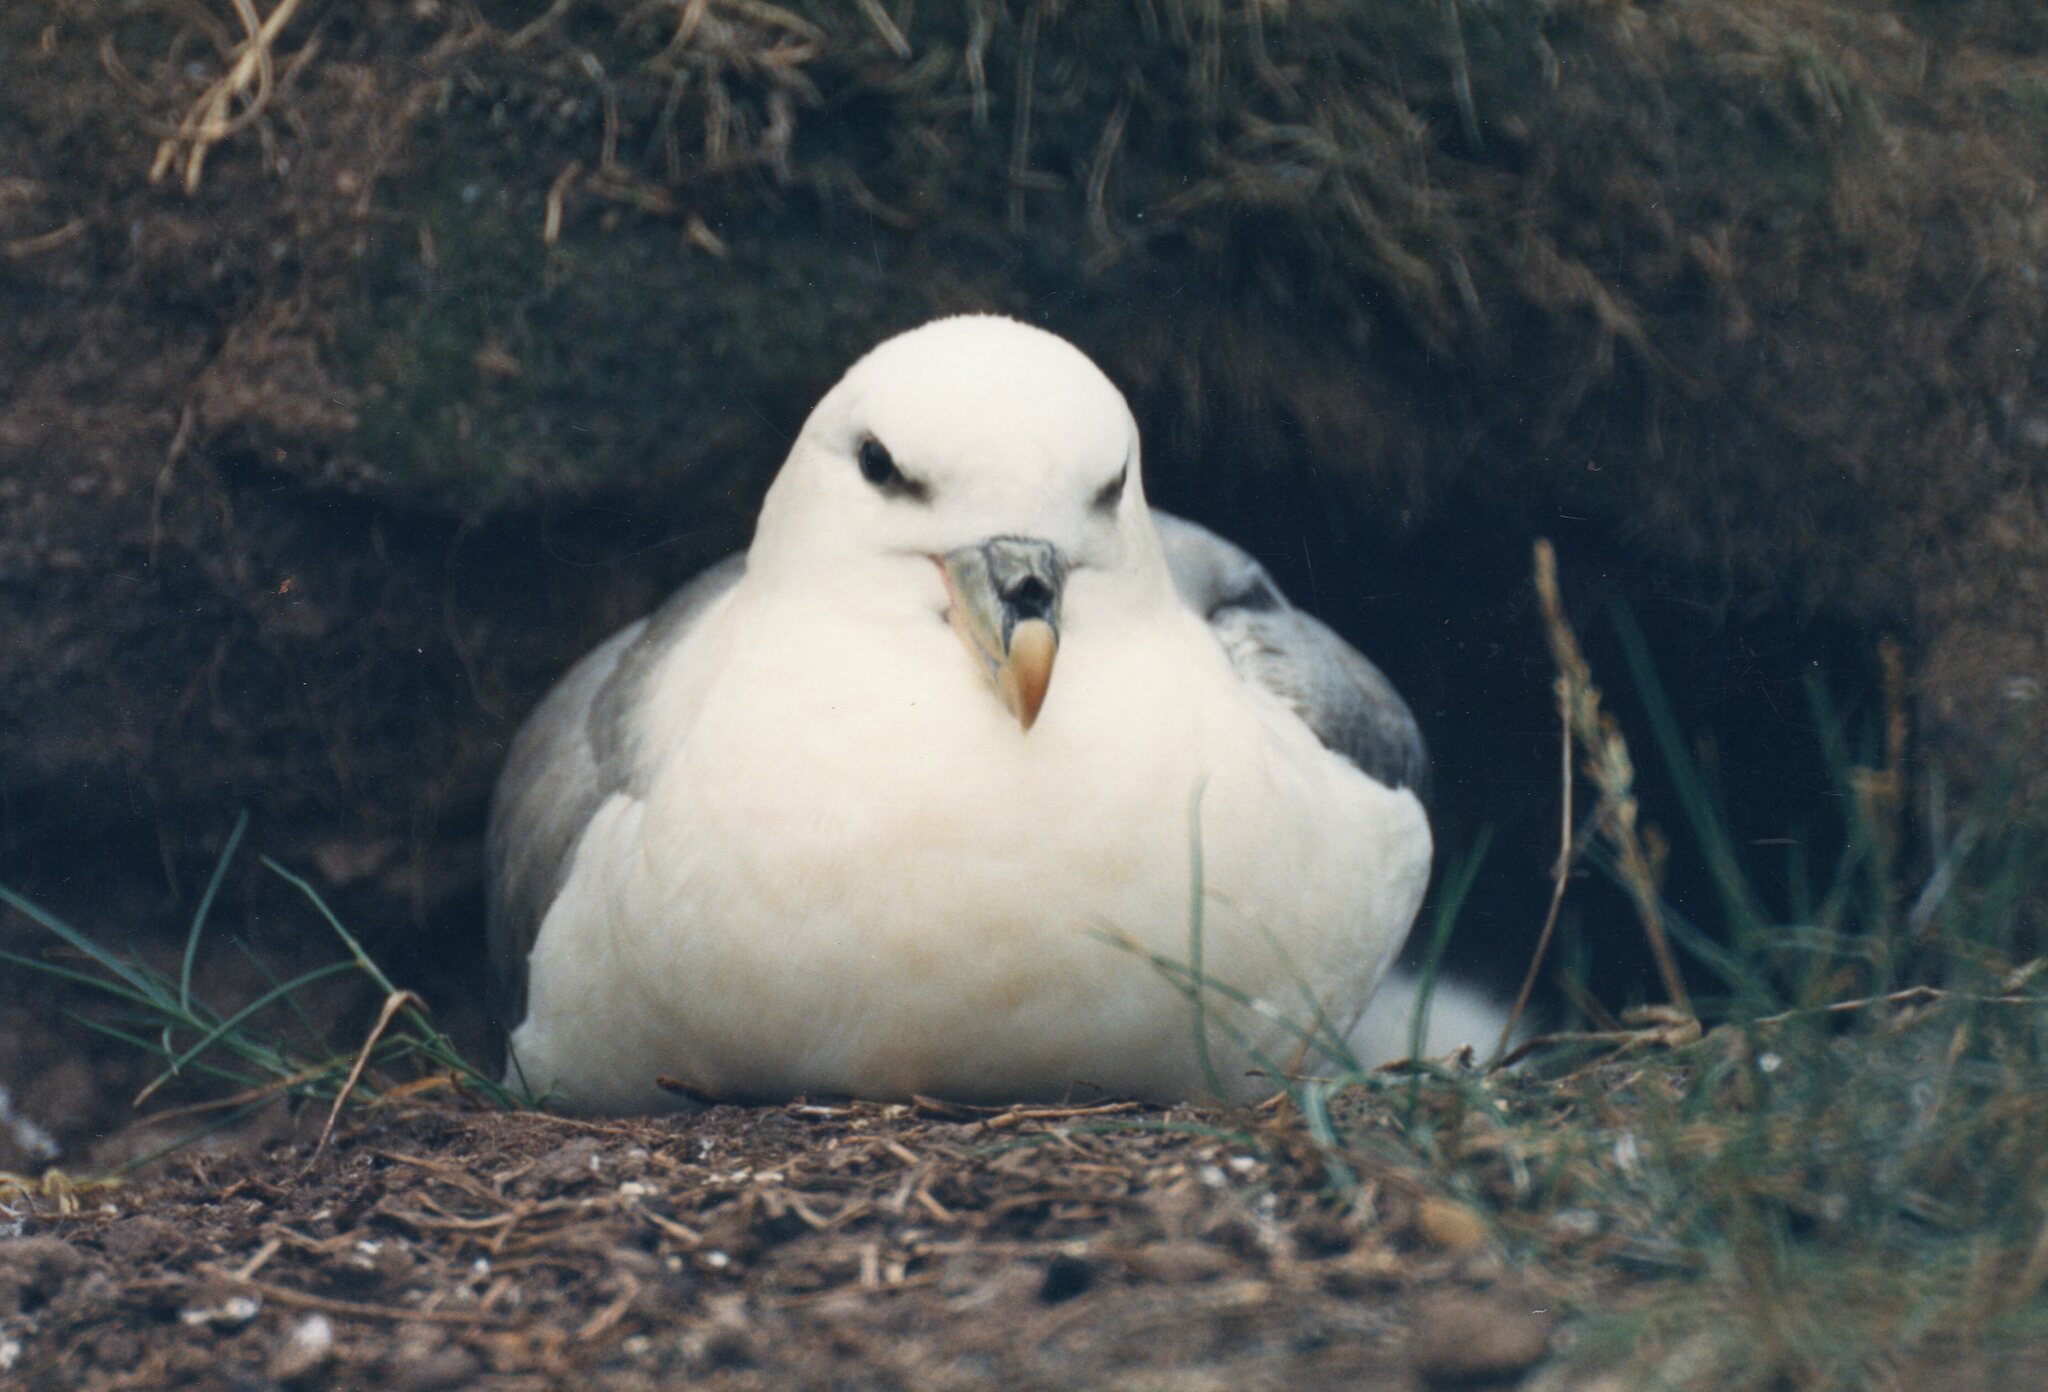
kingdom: Animalia
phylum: Chordata
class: Aves
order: Procellariiformes
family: Procellariidae
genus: Fulmarus
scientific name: Fulmarus glacialis
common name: Northern fulmar
